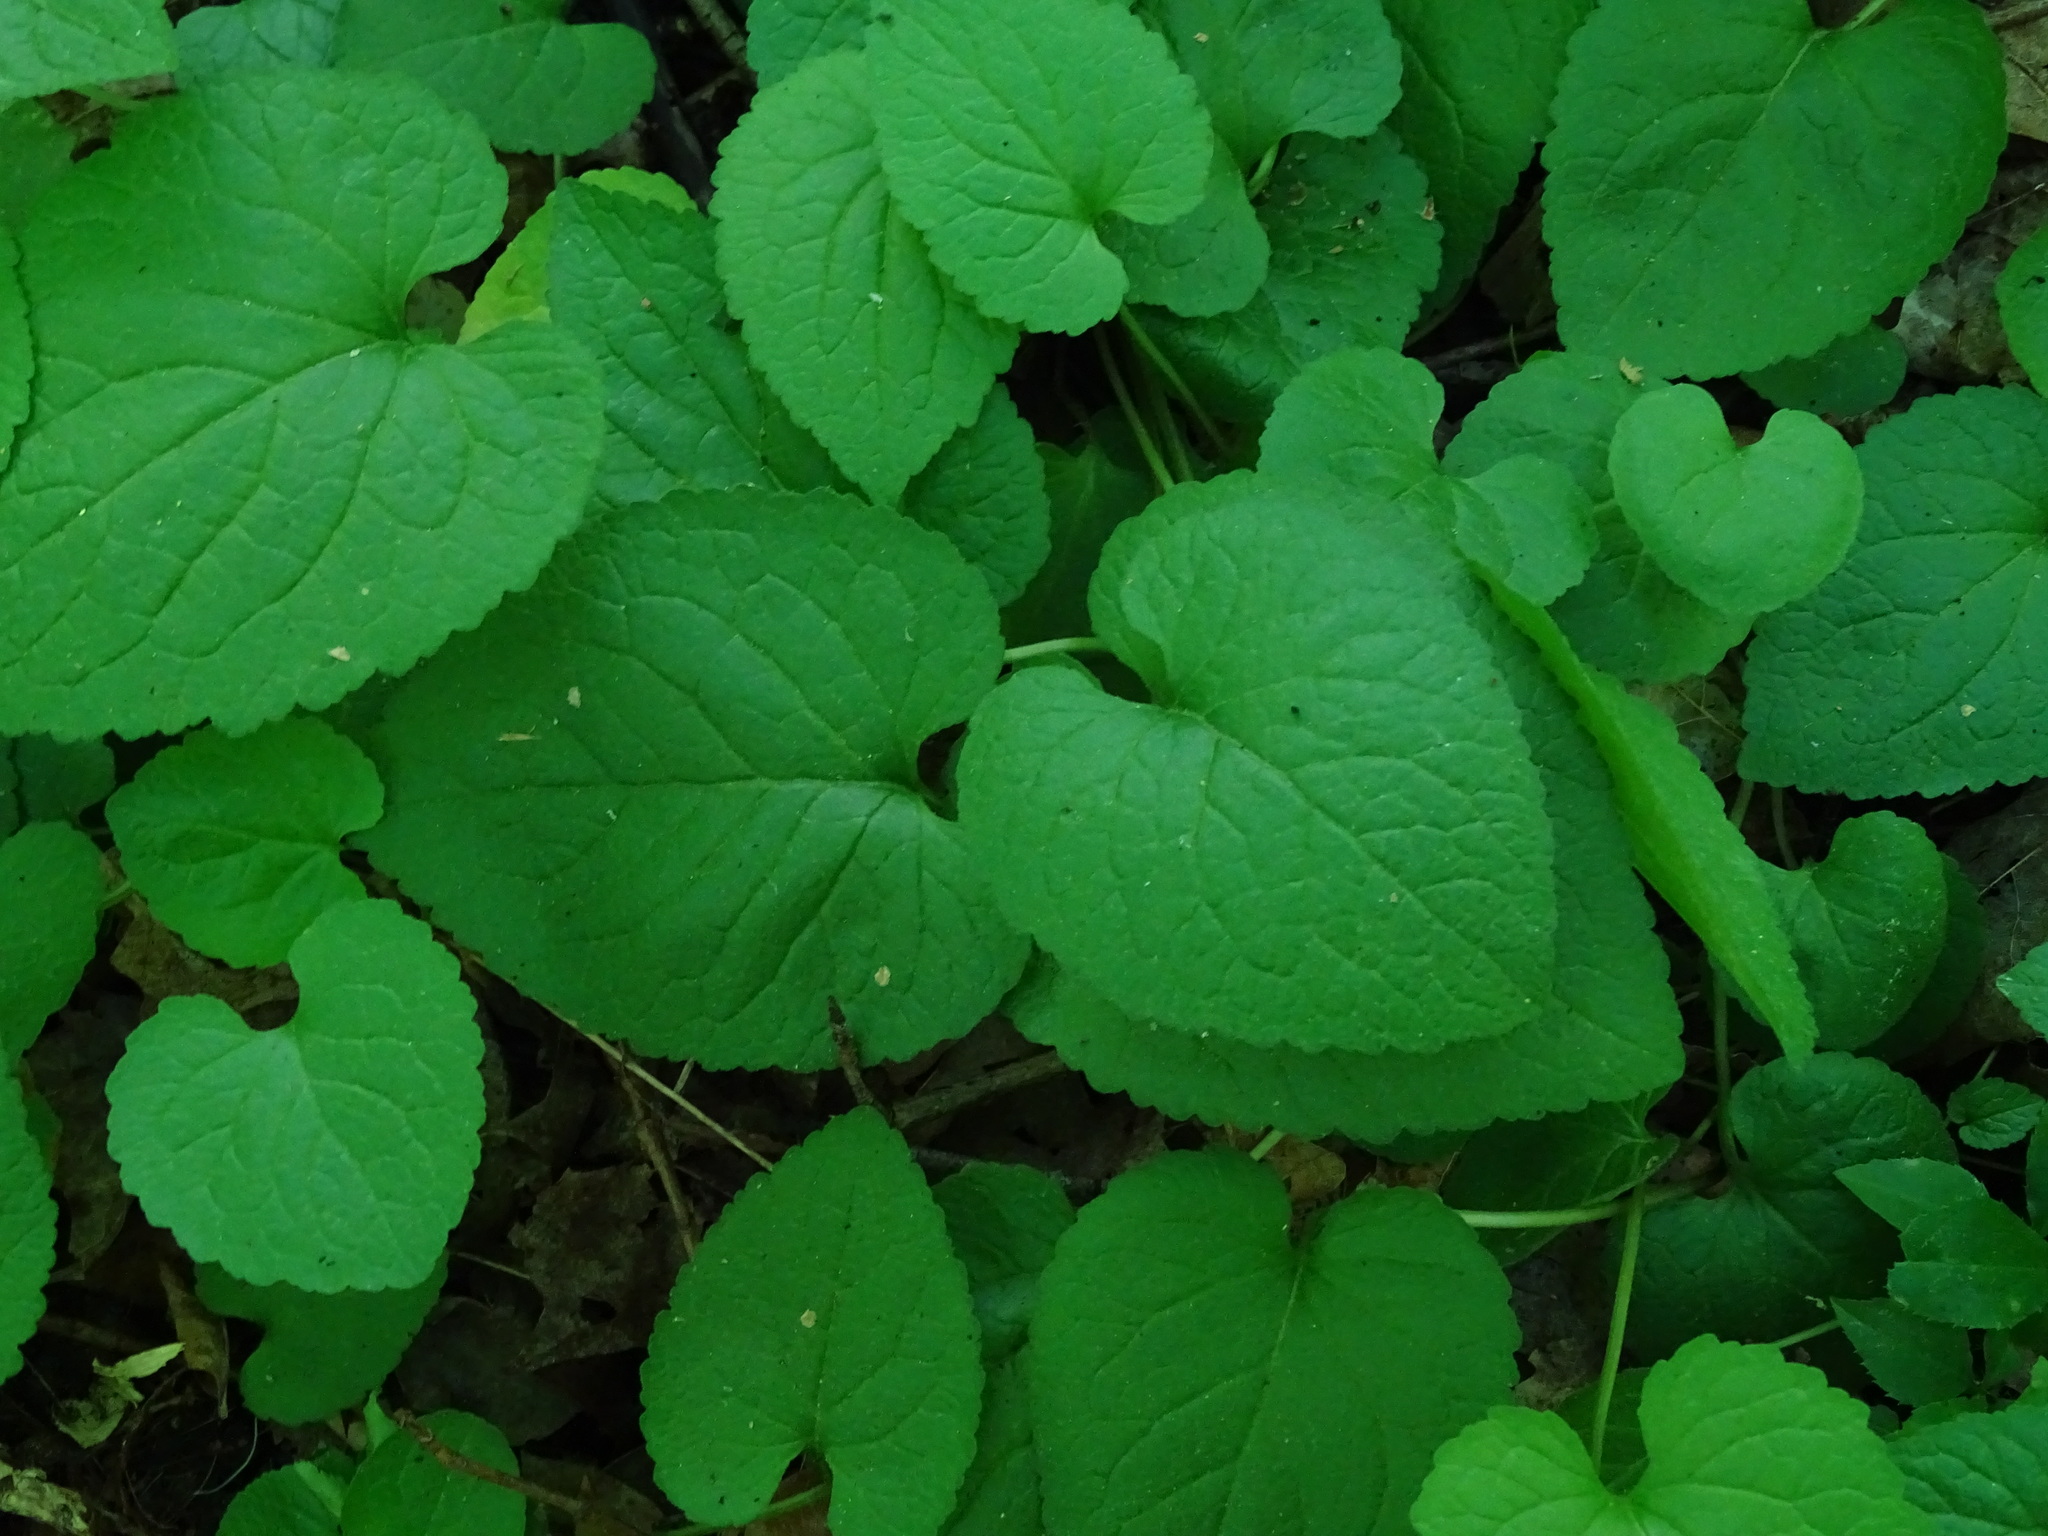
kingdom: Plantae
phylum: Tracheophyta
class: Magnoliopsida
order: Malpighiales
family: Violaceae
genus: Viola
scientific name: Viola odorata
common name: Sweet violet
